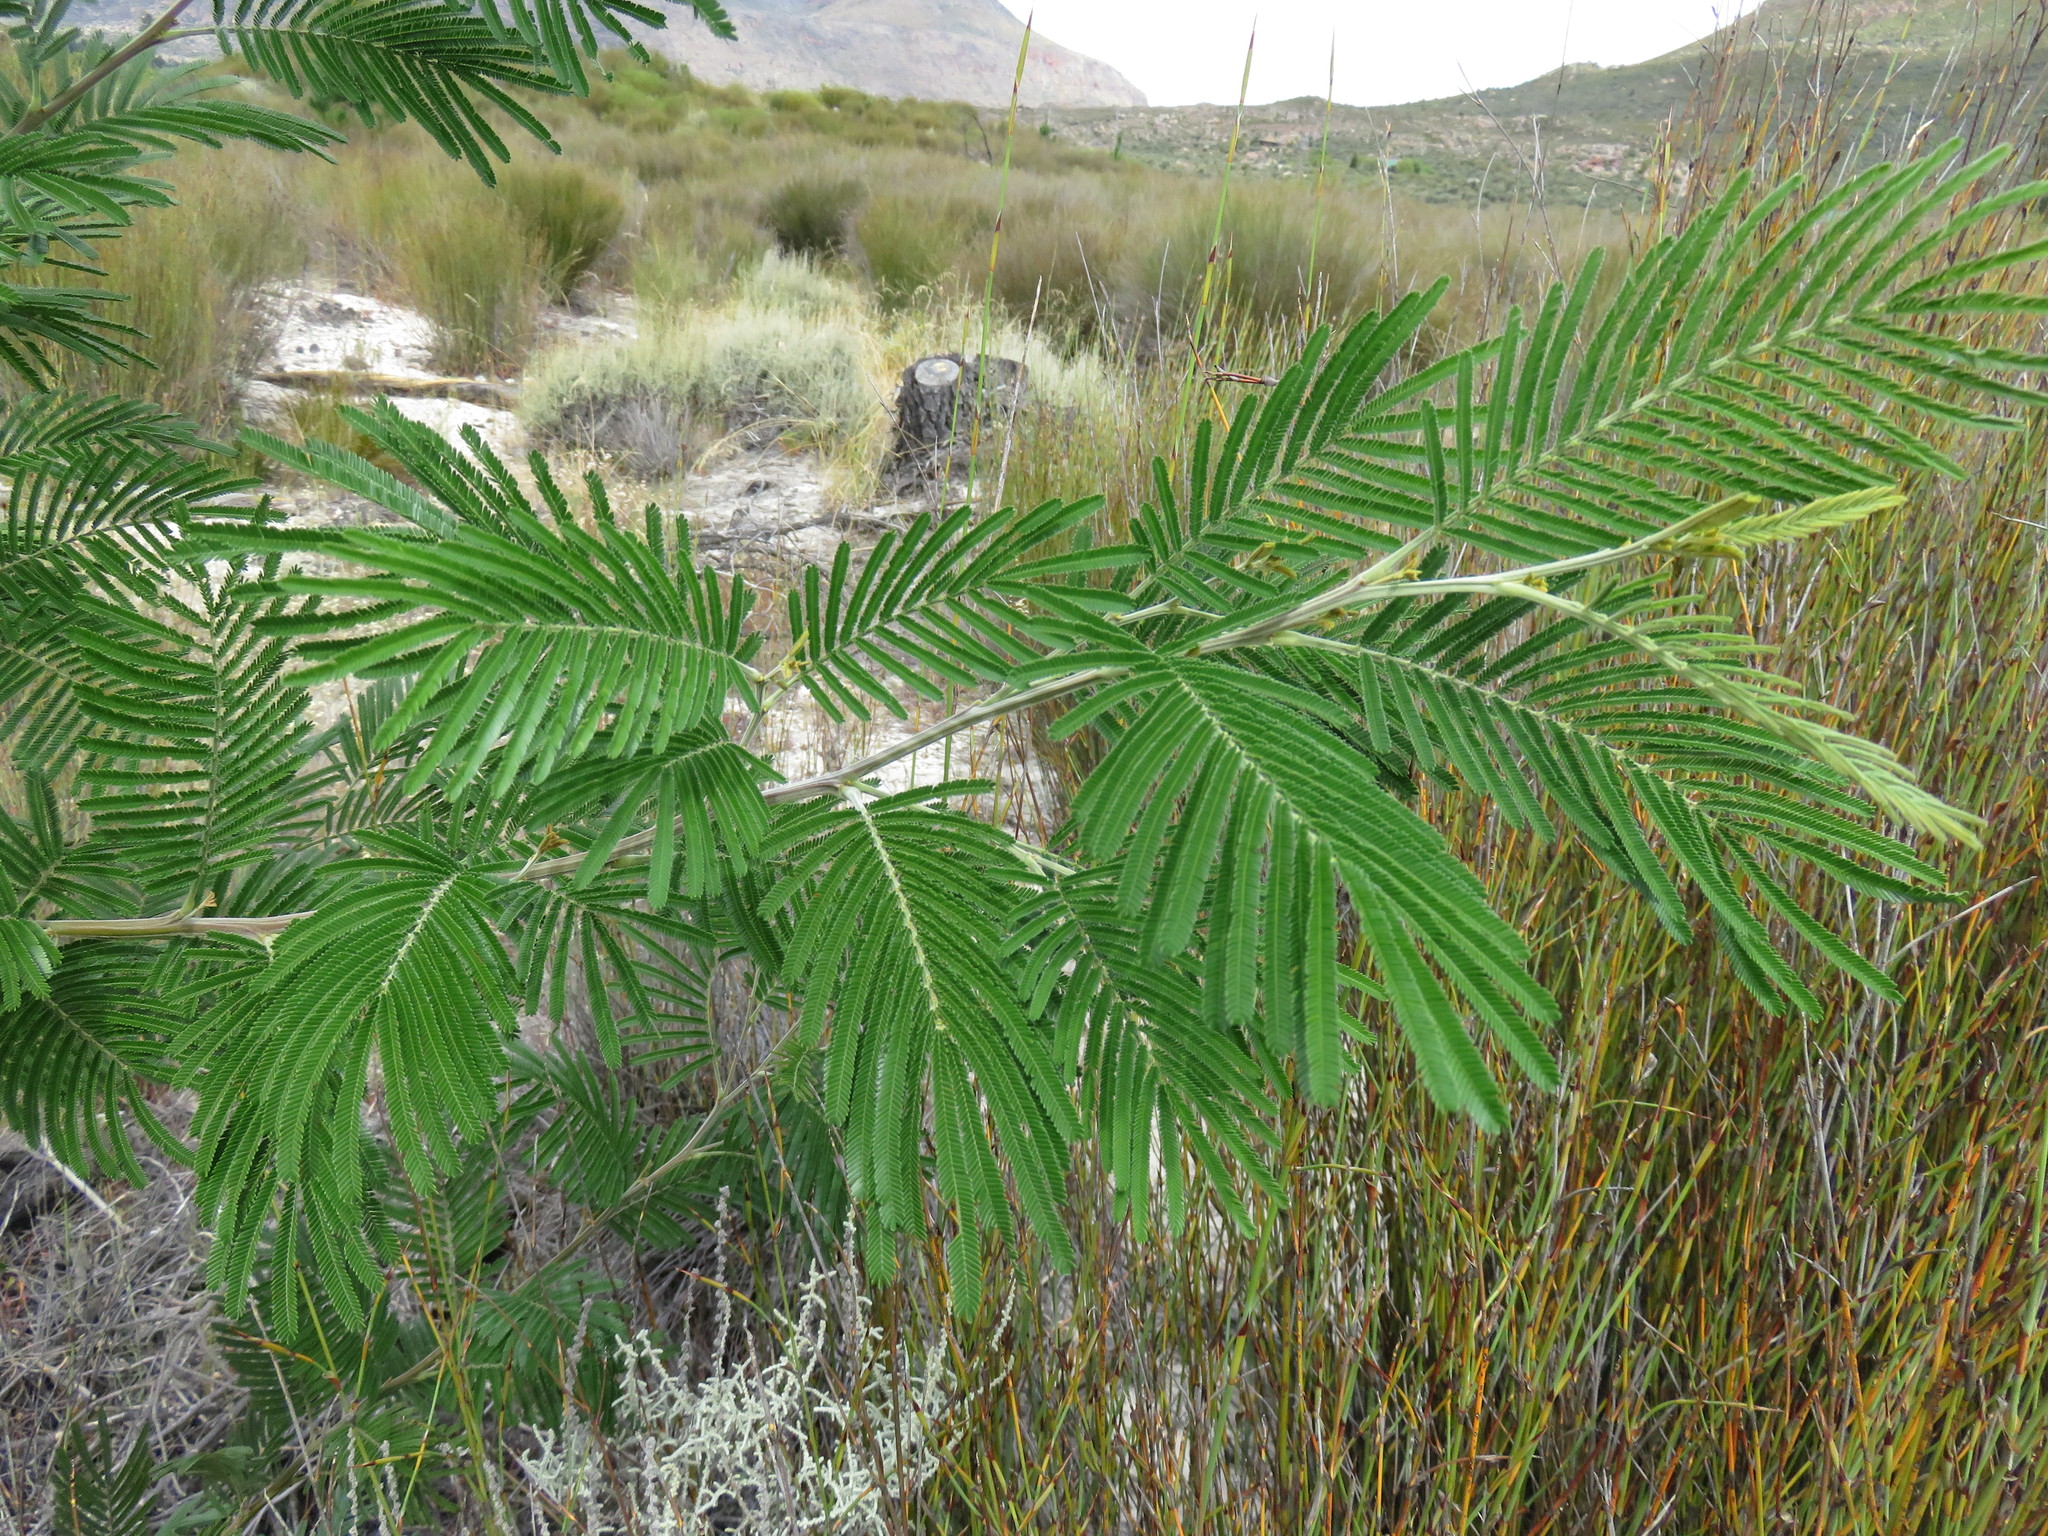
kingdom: Plantae
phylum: Tracheophyta
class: Magnoliopsida
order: Fabales
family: Fabaceae
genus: Acacia
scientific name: Acacia mearnsii
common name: Black wattle
